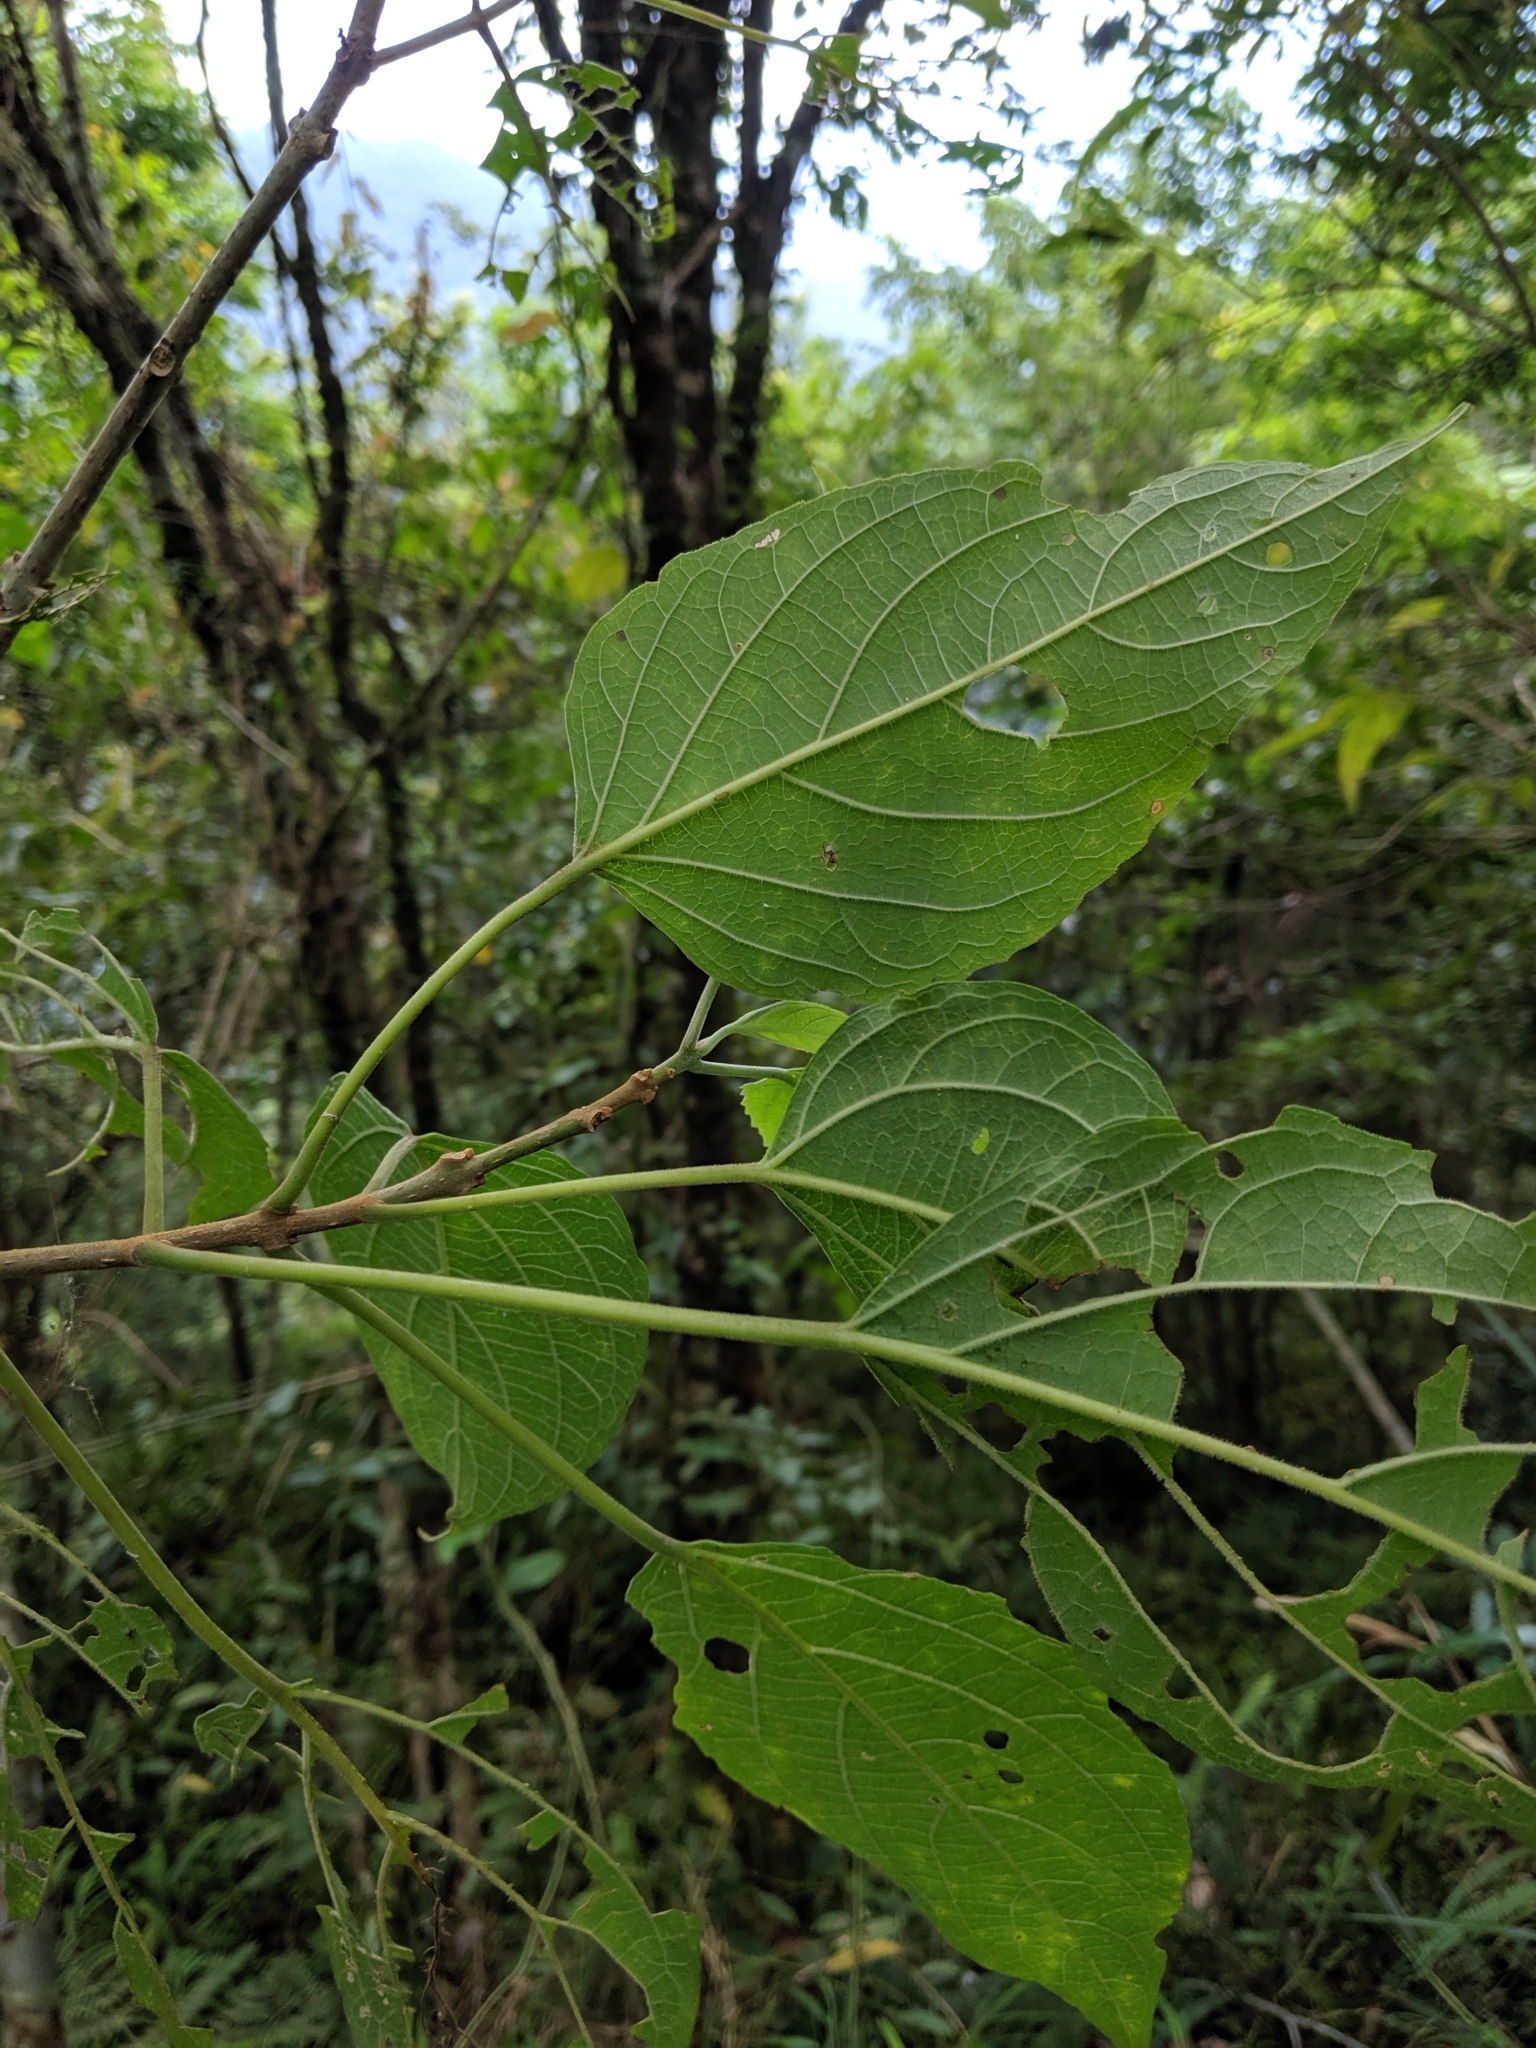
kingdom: Plantae
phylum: Tracheophyta
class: Magnoliopsida
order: Lamiales
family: Lamiaceae
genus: Clerodendrum
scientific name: Clerodendrum trichotomum
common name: Harlequin glorybower
